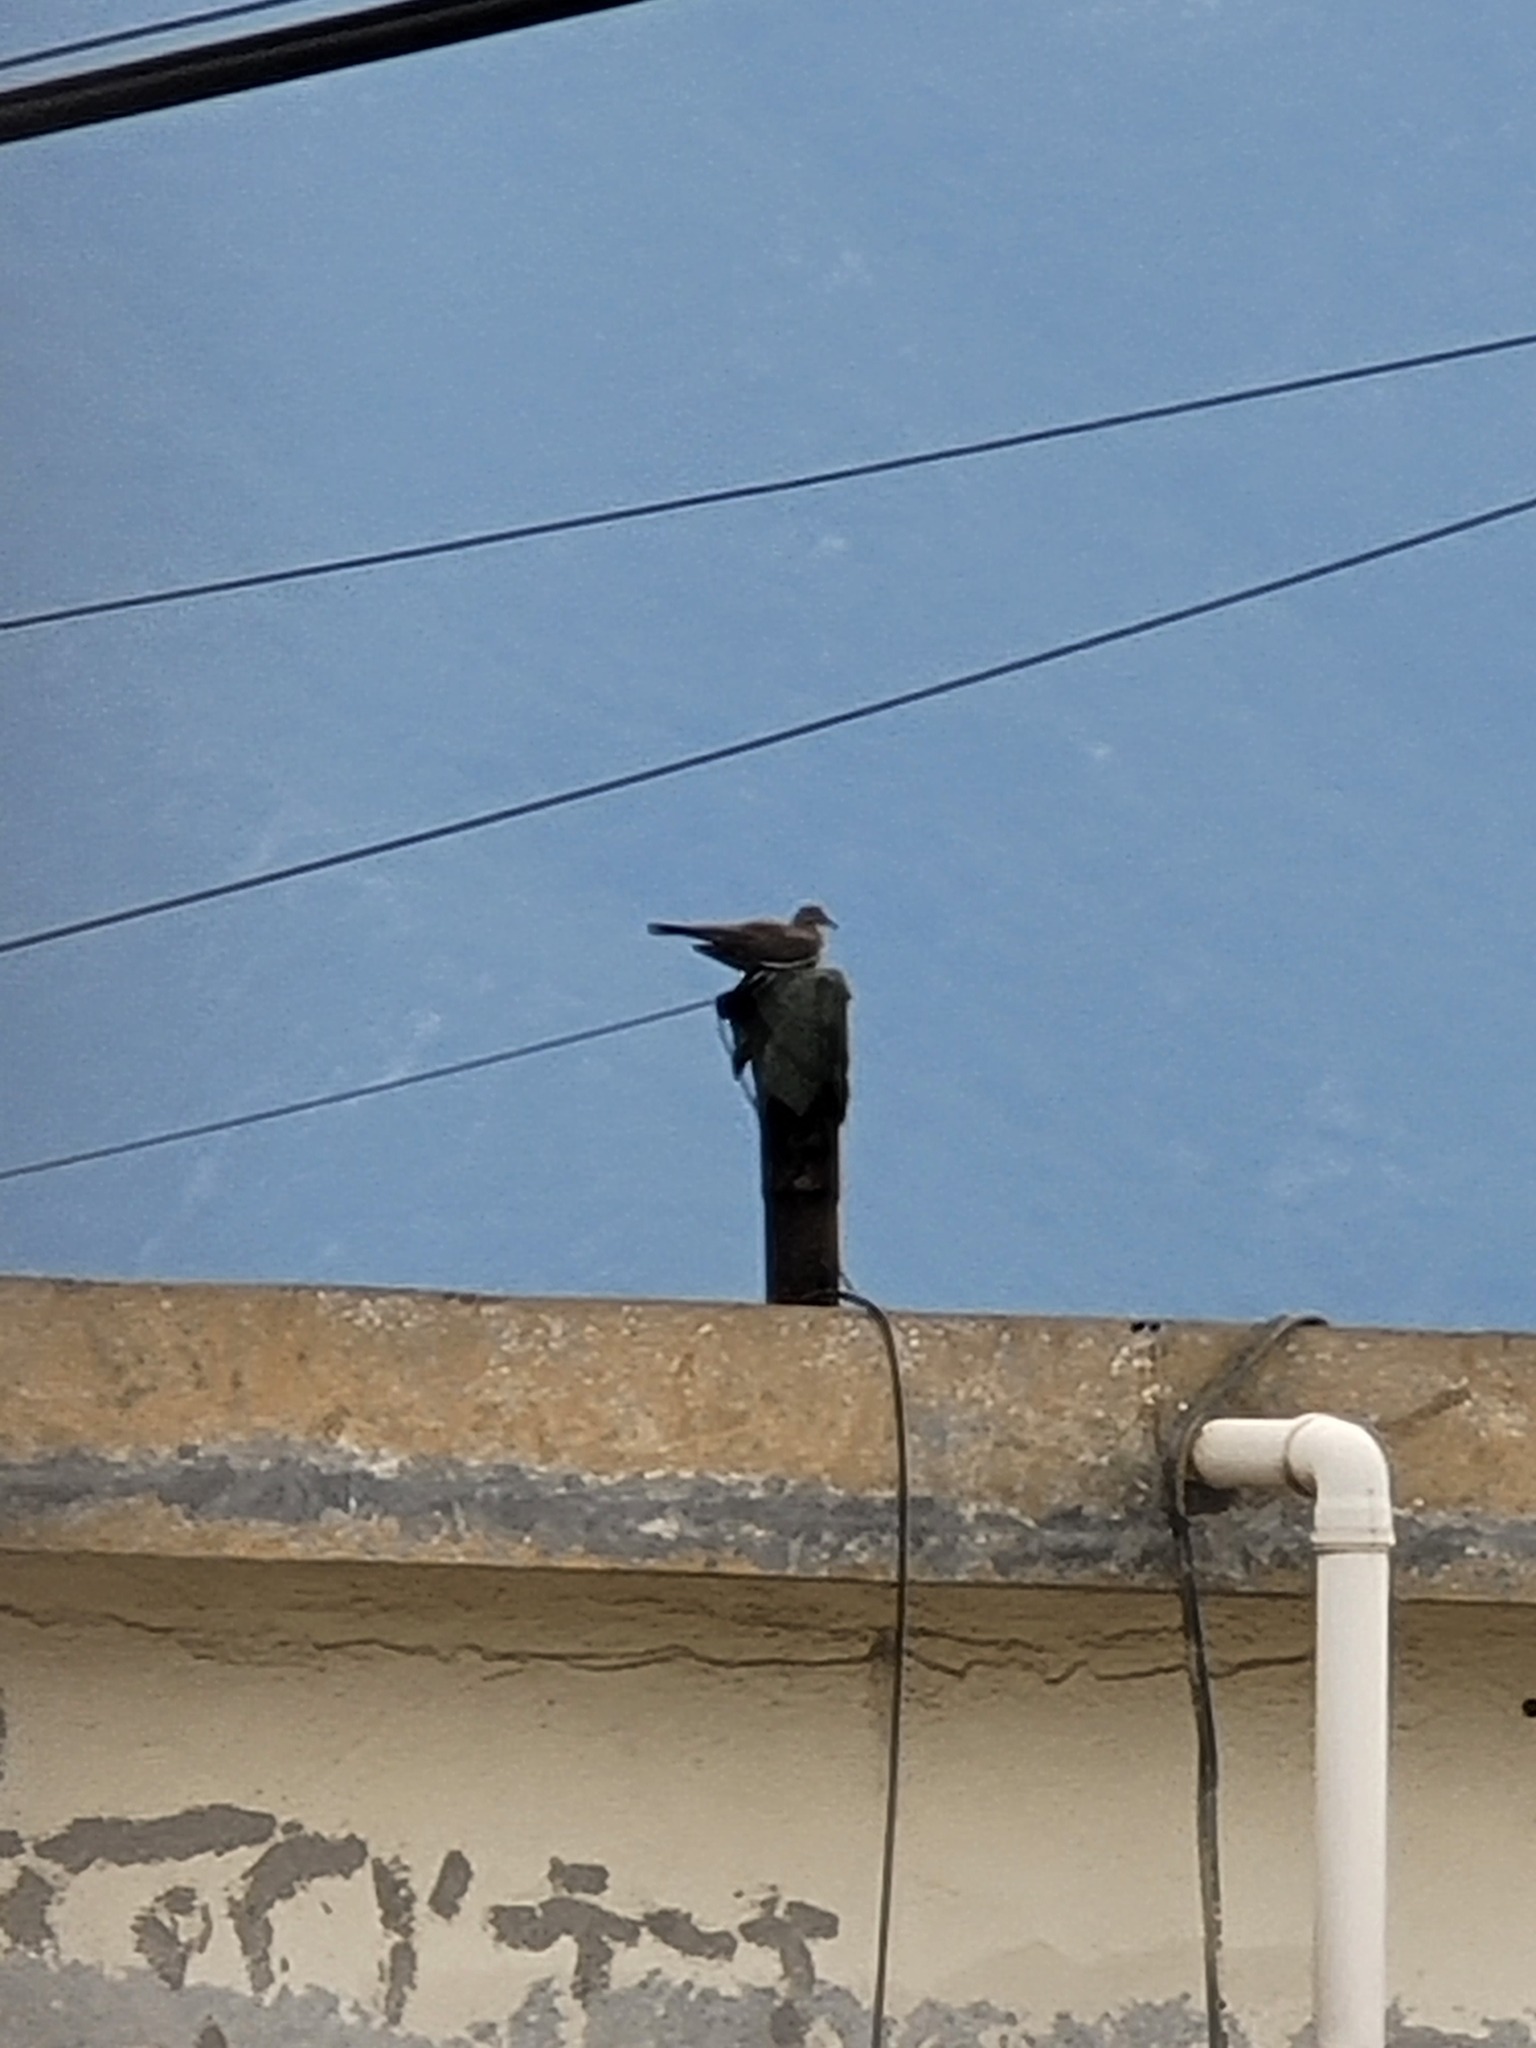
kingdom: Animalia
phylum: Chordata
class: Aves
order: Columbiformes
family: Columbidae
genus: Zenaida
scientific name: Zenaida asiatica
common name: White-winged dove
